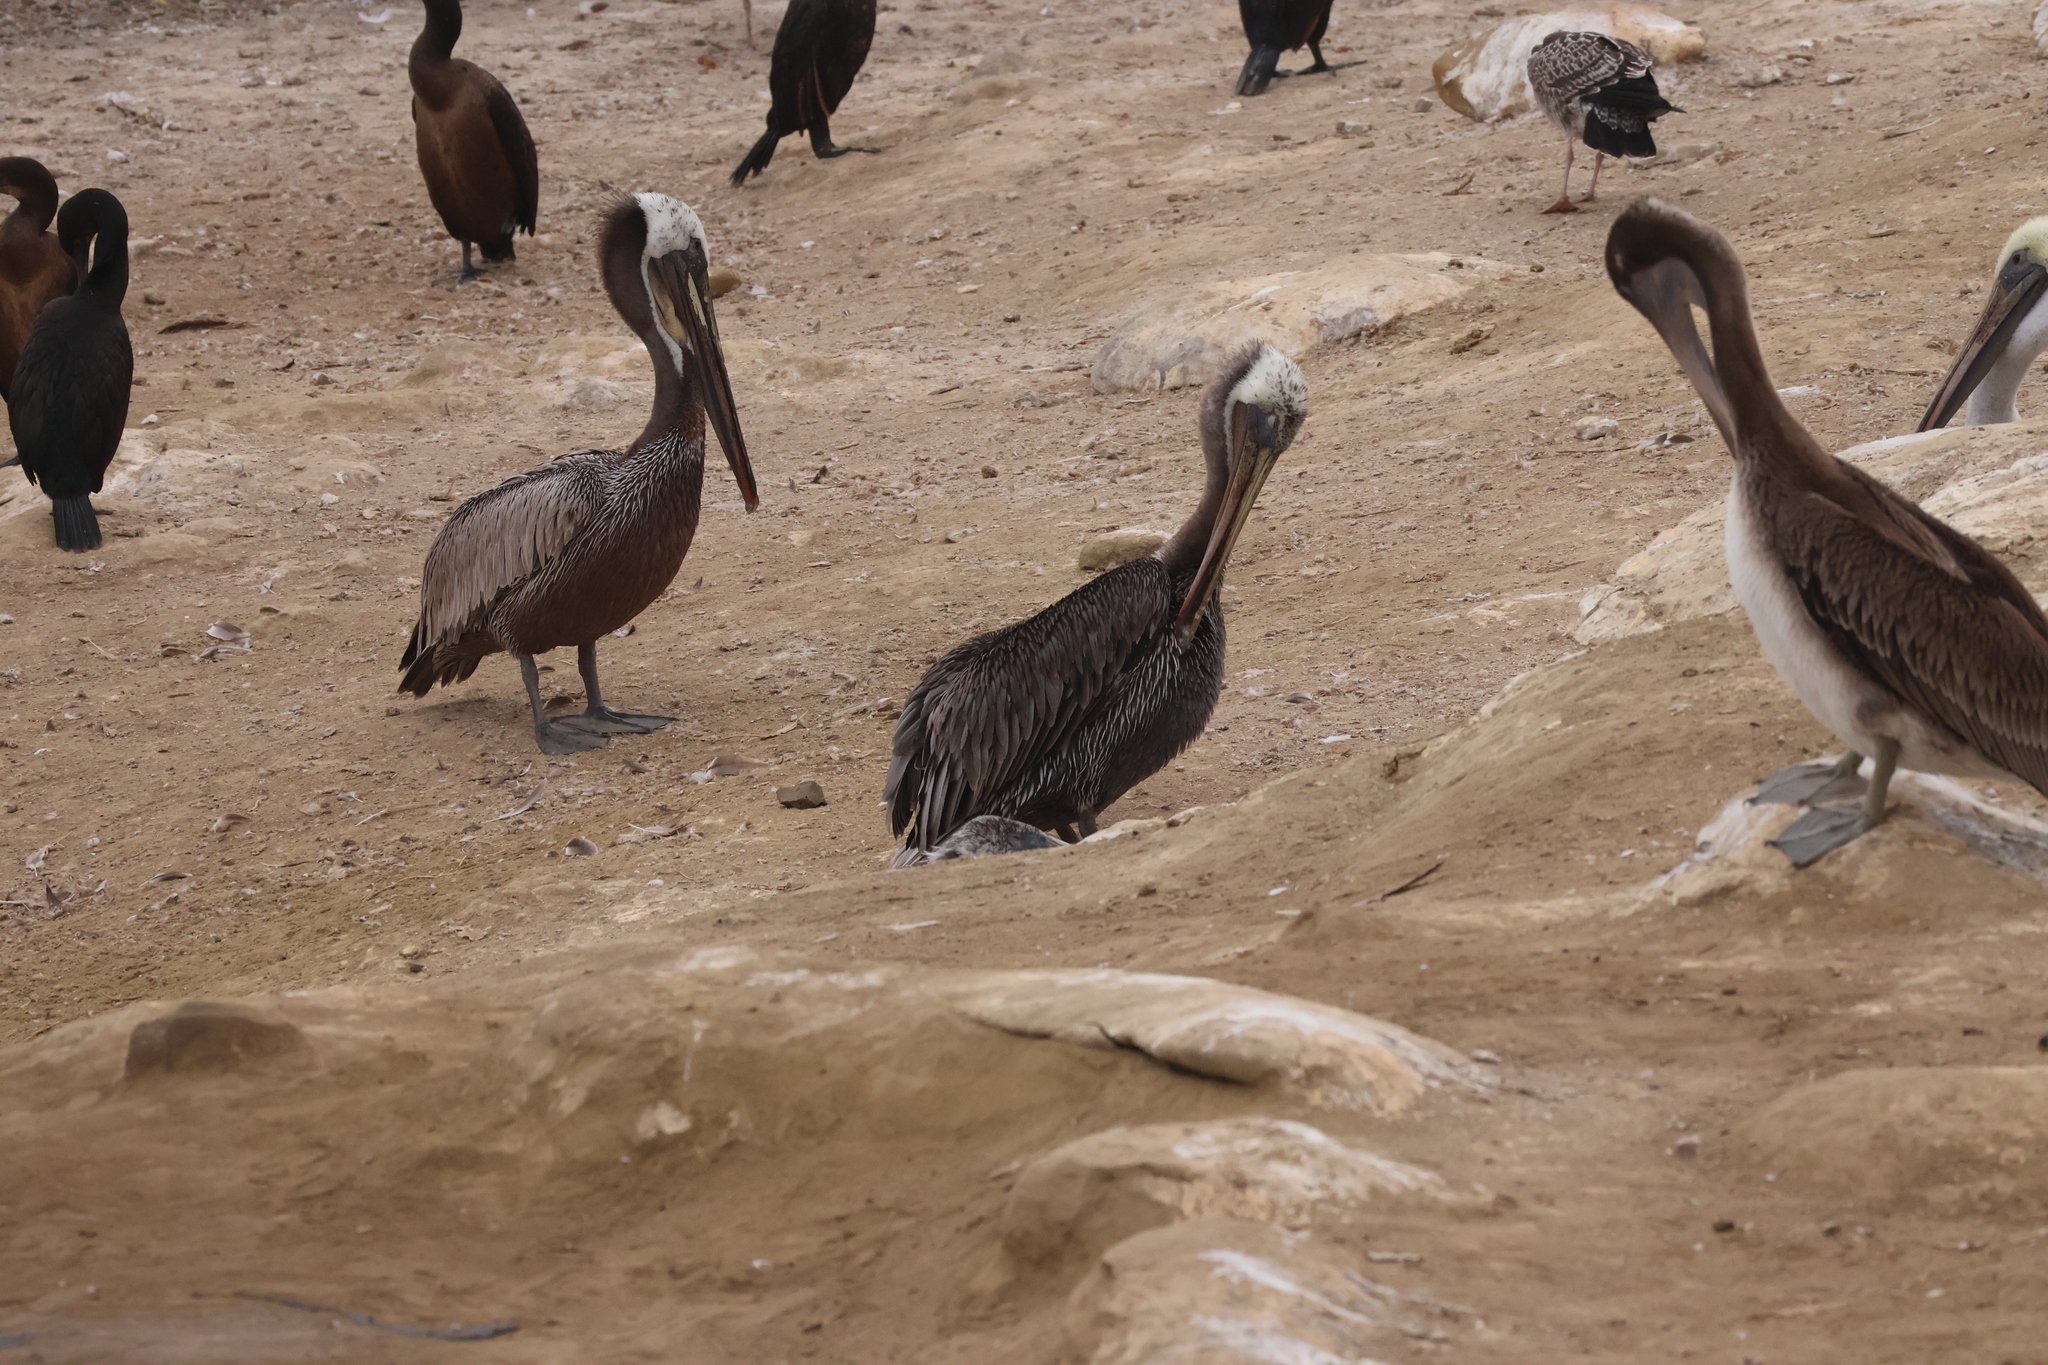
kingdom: Animalia
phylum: Chordata
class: Aves
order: Pelecaniformes
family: Pelecanidae
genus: Pelecanus
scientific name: Pelecanus occidentalis
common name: Brown pelican
